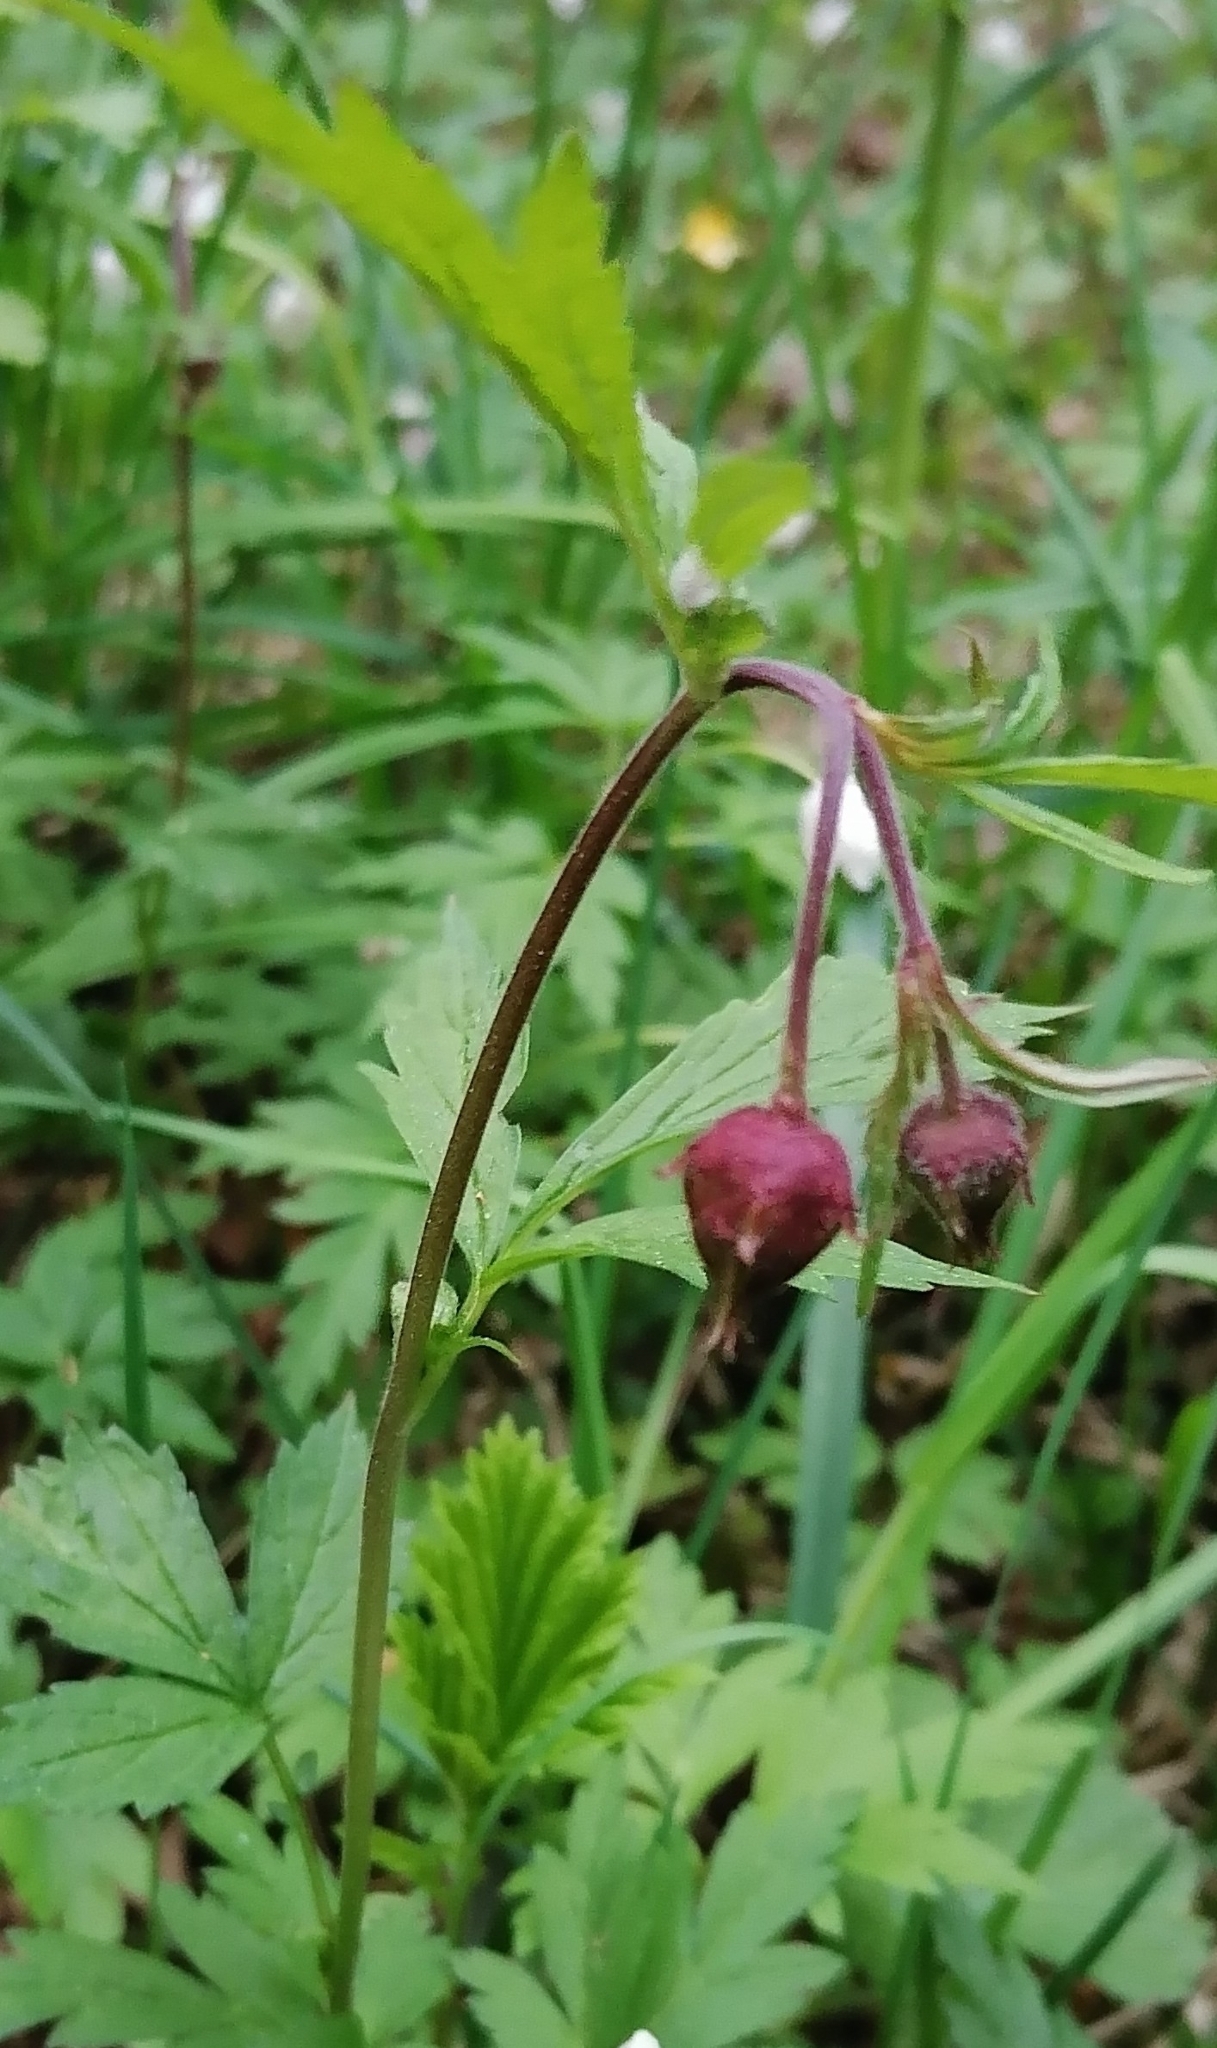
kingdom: Plantae
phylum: Tracheophyta
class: Magnoliopsida
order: Rosales
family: Rosaceae
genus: Geum
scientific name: Geum rivale
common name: Water avens
